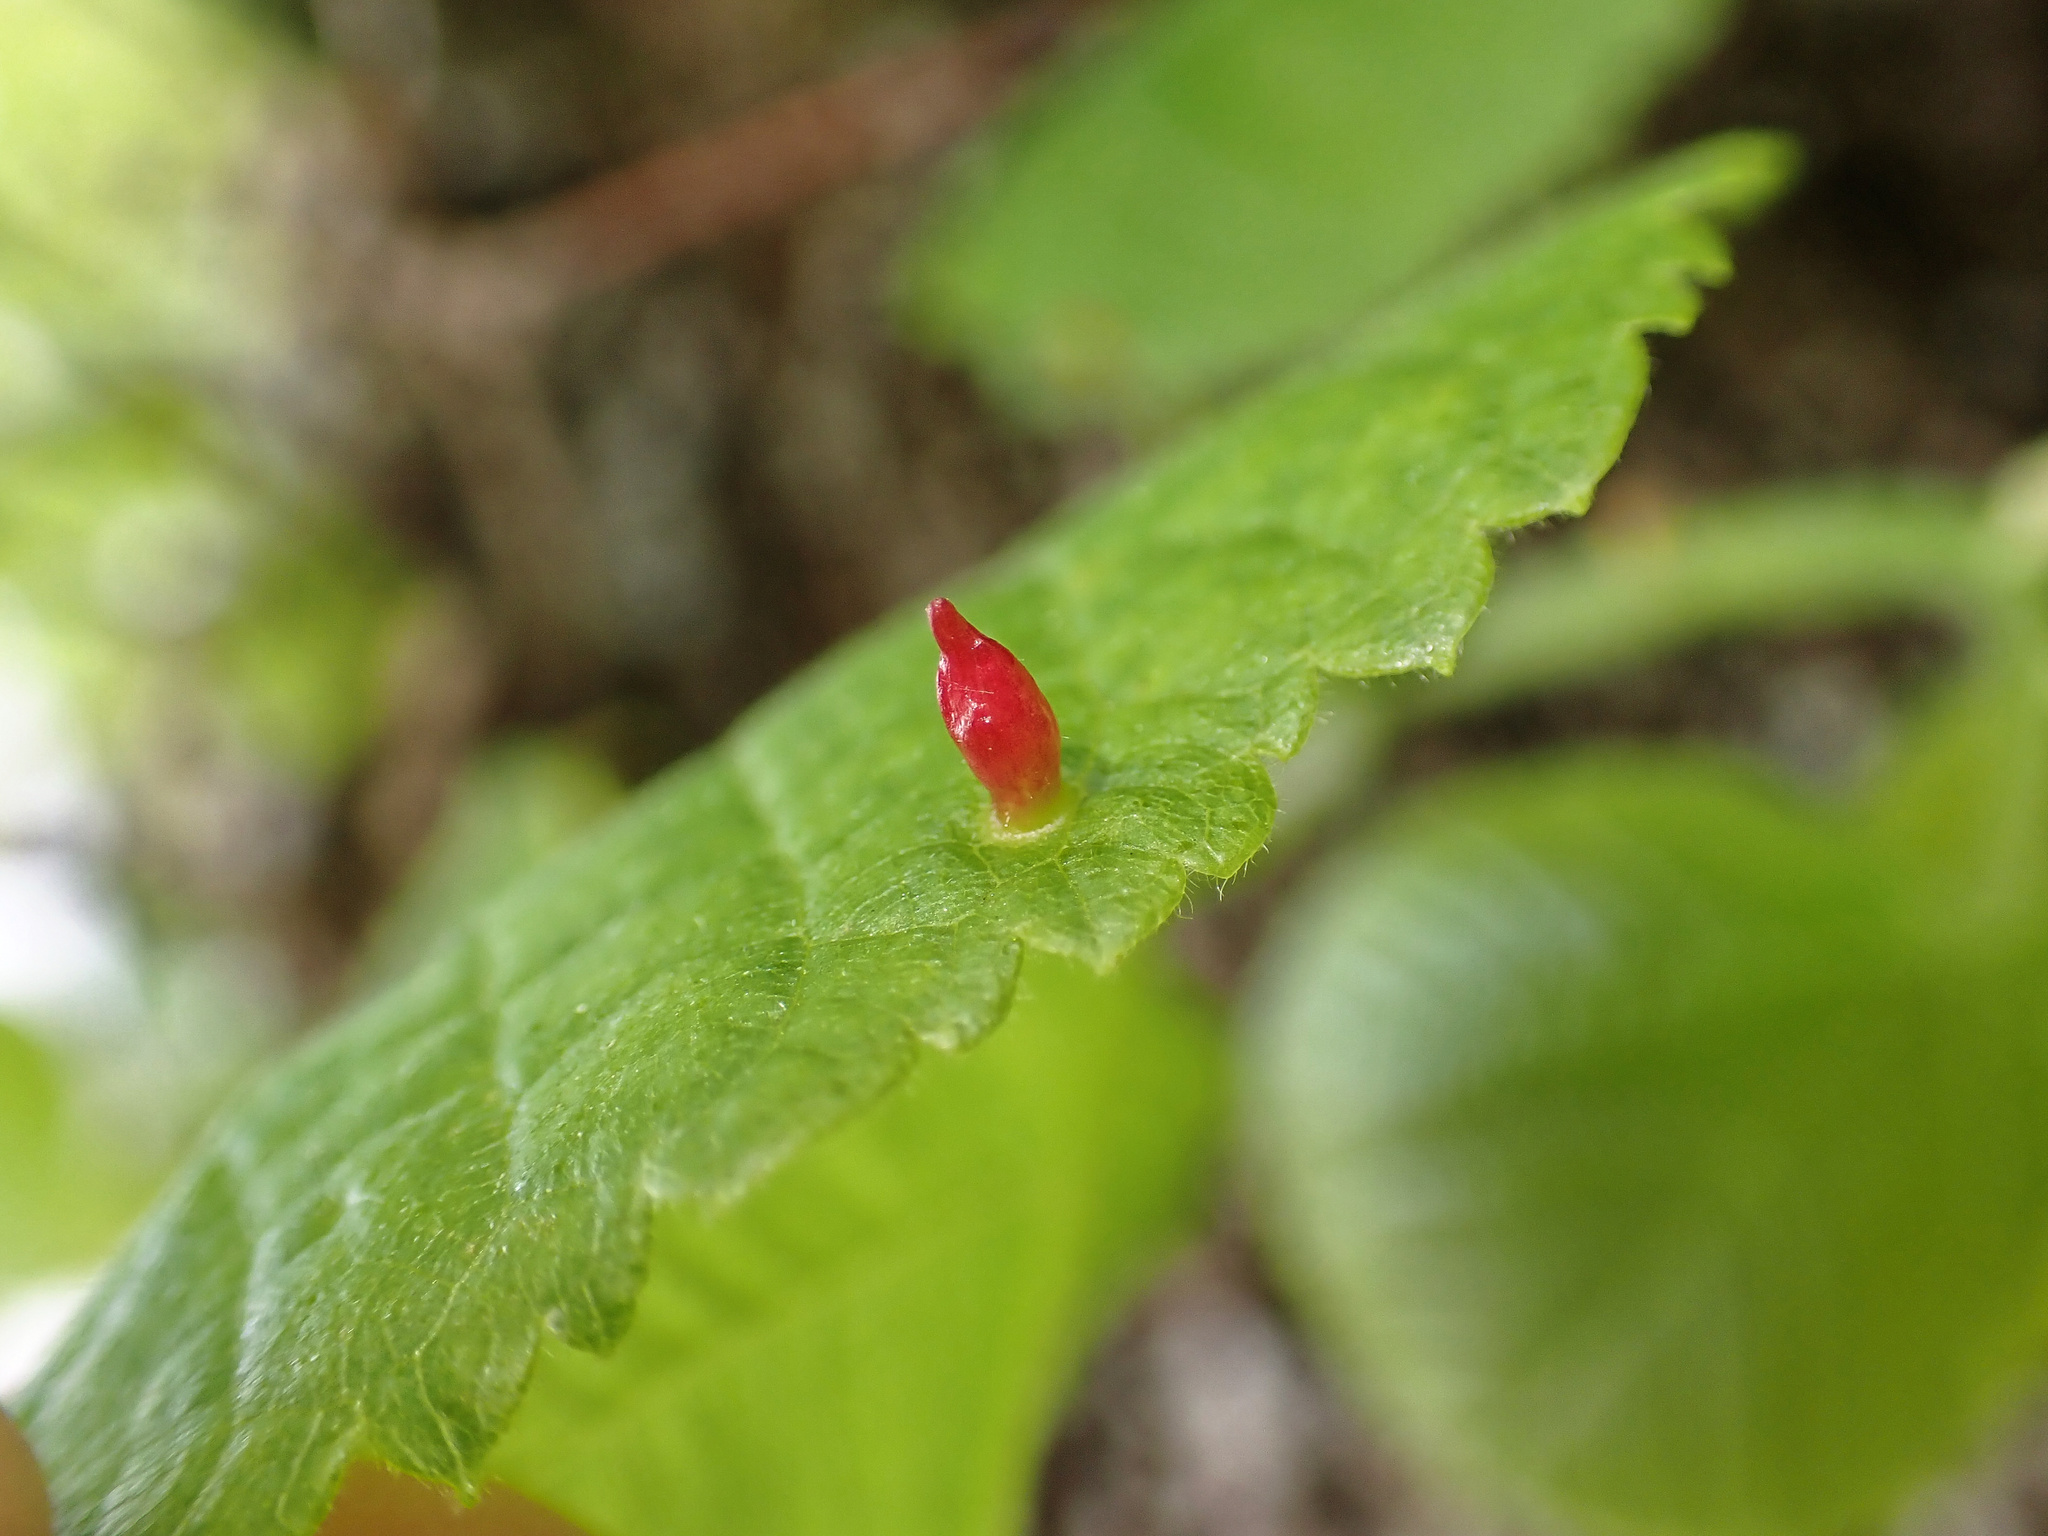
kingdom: Animalia
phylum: Arthropoda
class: Arachnida
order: Trombidiformes
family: Eriophyidae
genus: Eriophyes
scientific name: Eriophyes tiliae
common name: Red nail gall mite
